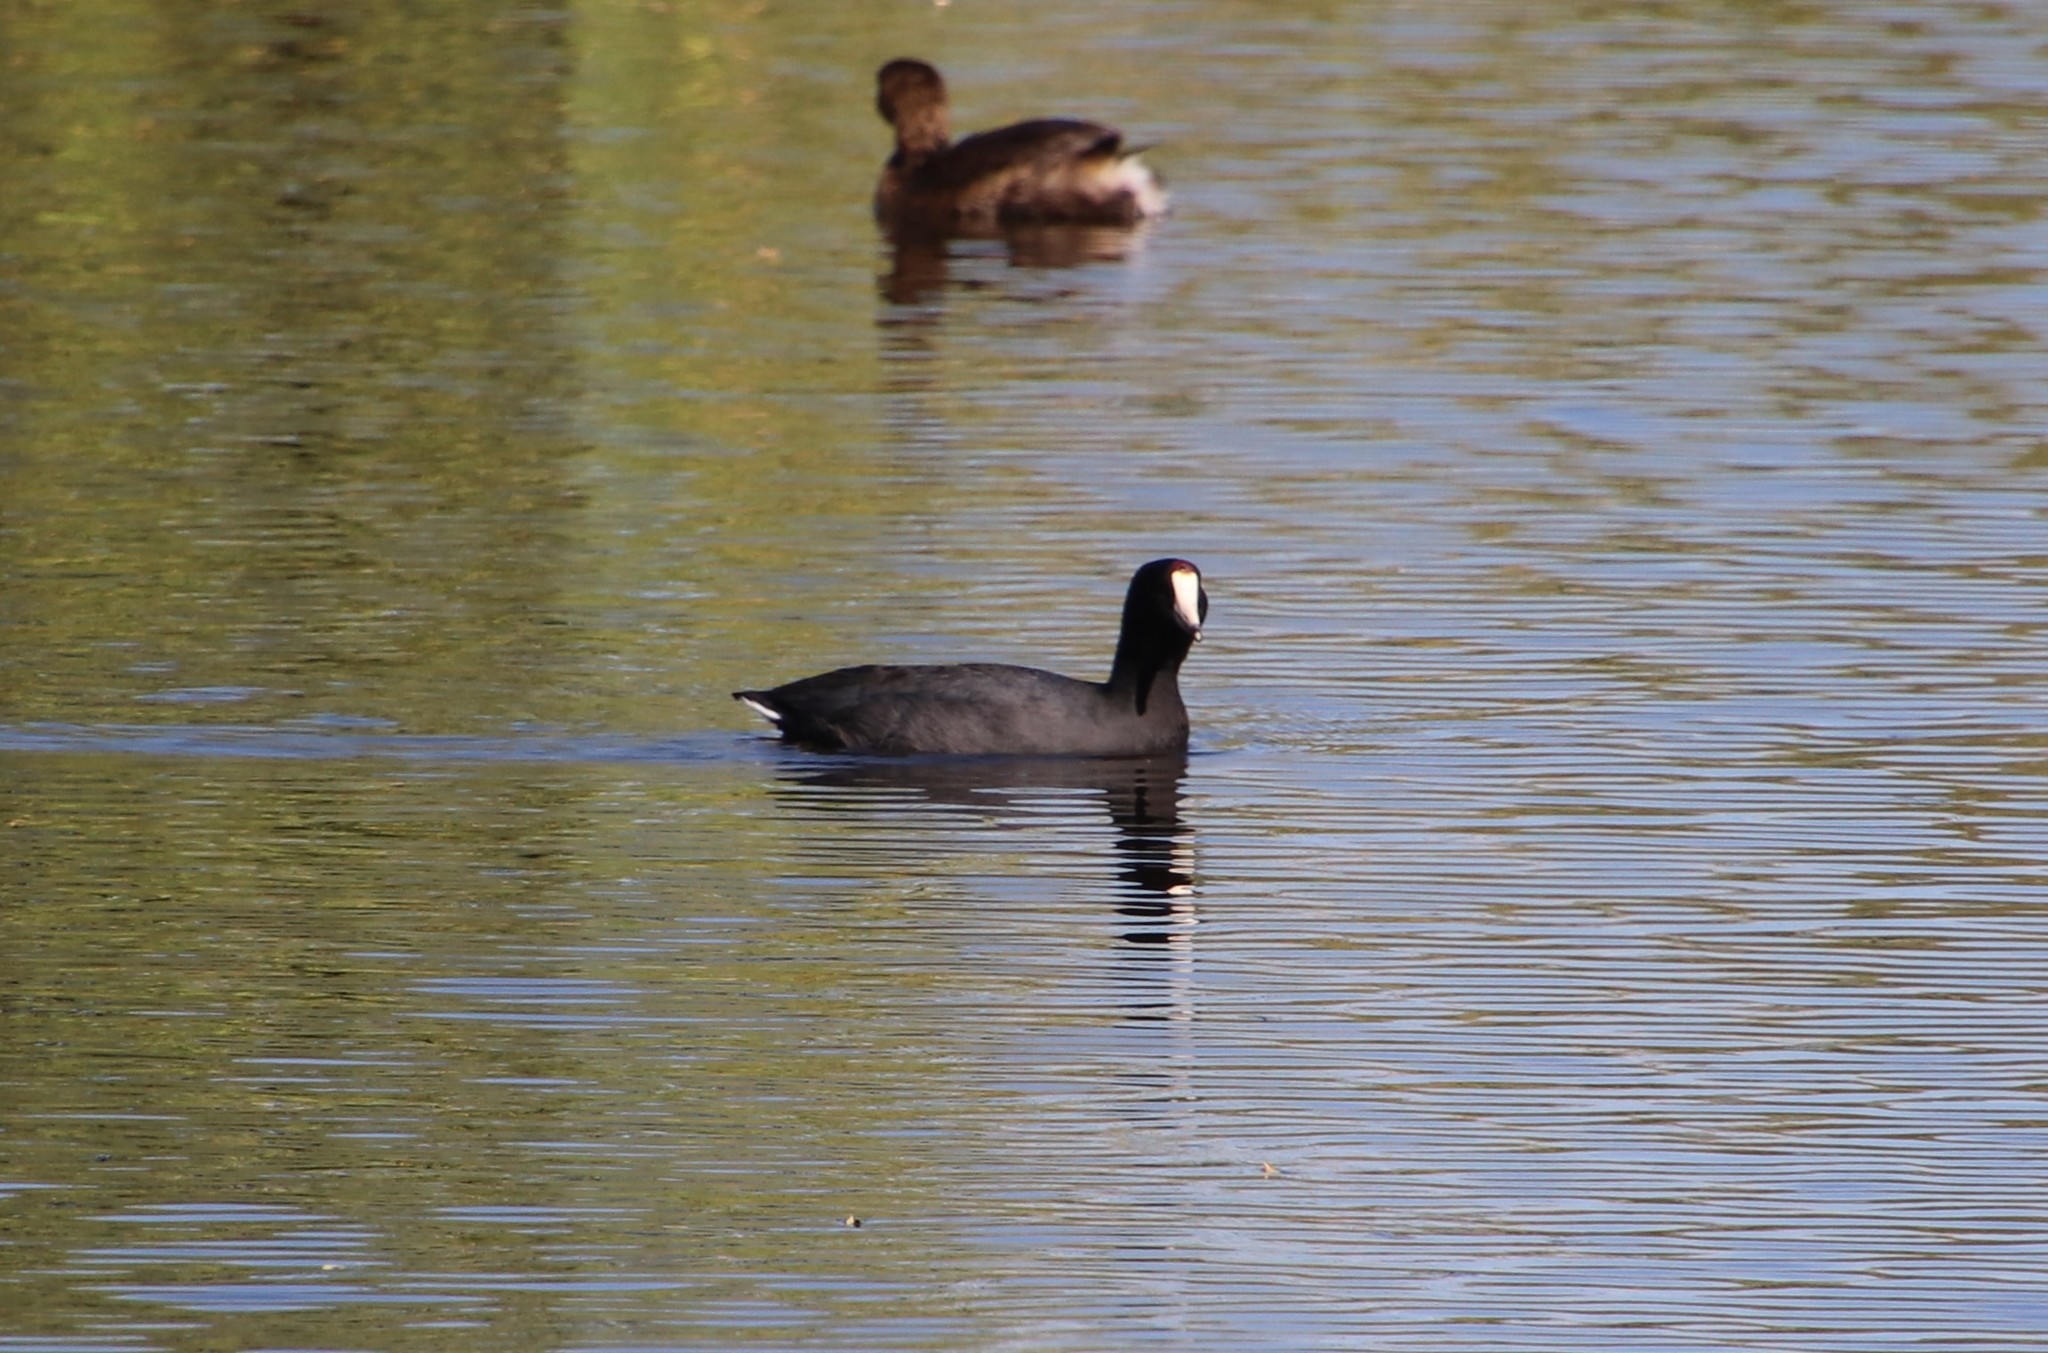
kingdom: Animalia
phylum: Chordata
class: Aves
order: Gruiformes
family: Rallidae
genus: Fulica
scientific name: Fulica americana
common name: American coot
